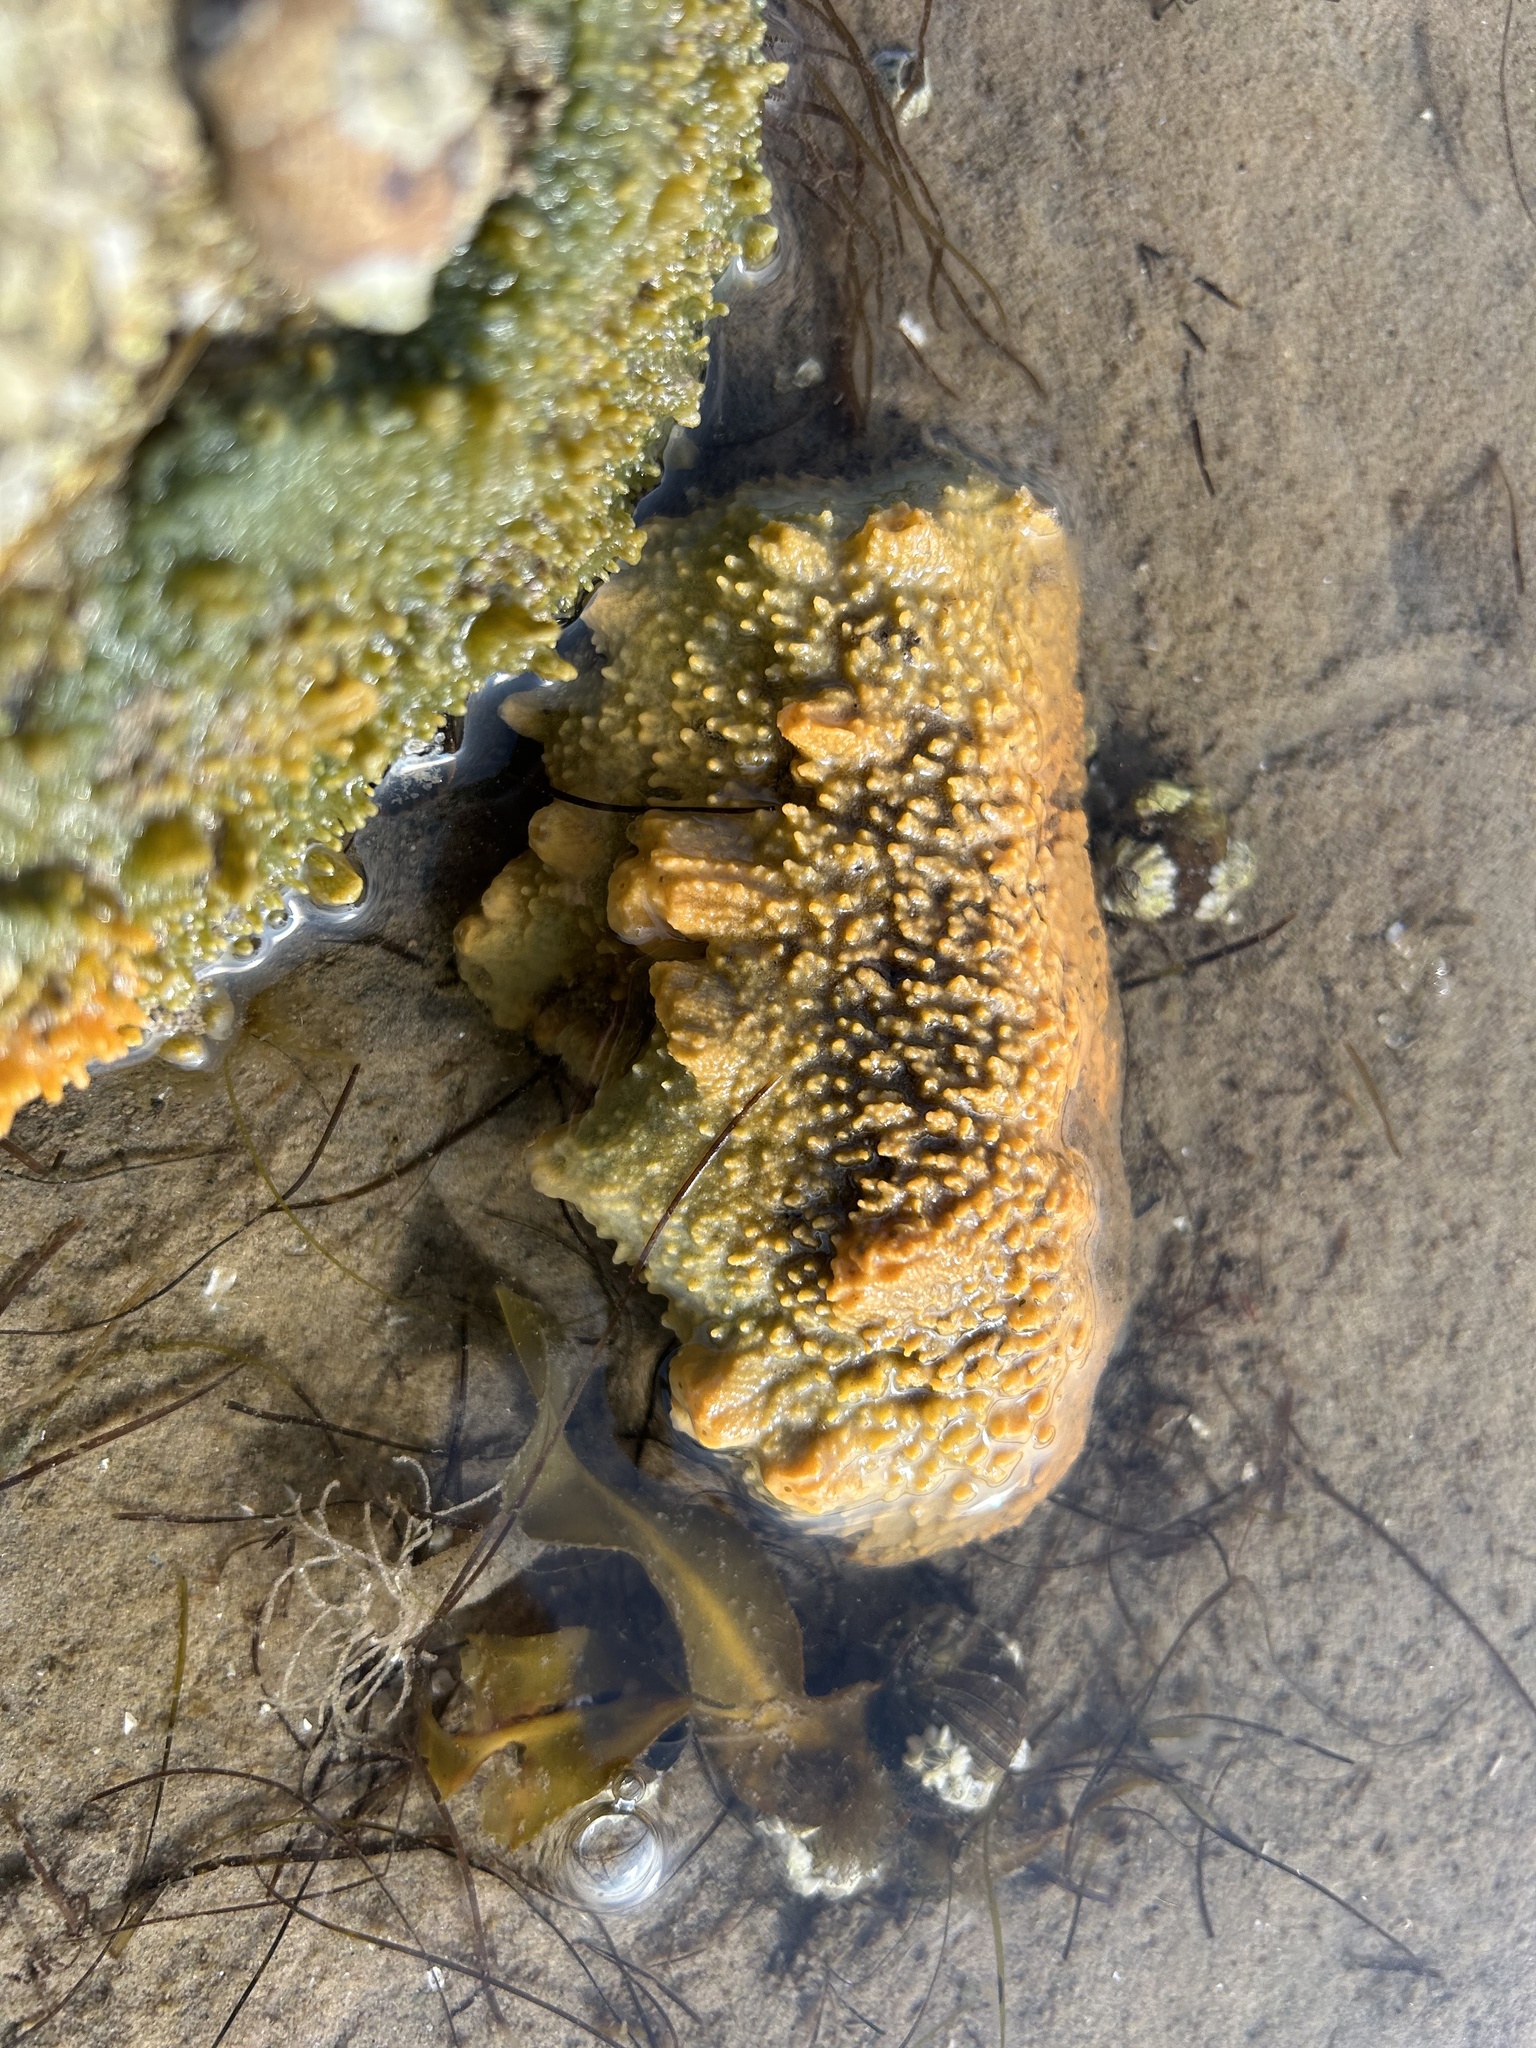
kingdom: Animalia
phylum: Porifera
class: Demospongiae
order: Suberitida
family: Halichondriidae
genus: Hymeniacidon
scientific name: Hymeniacidon perlevis
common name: Crumb-of-bread sponge
